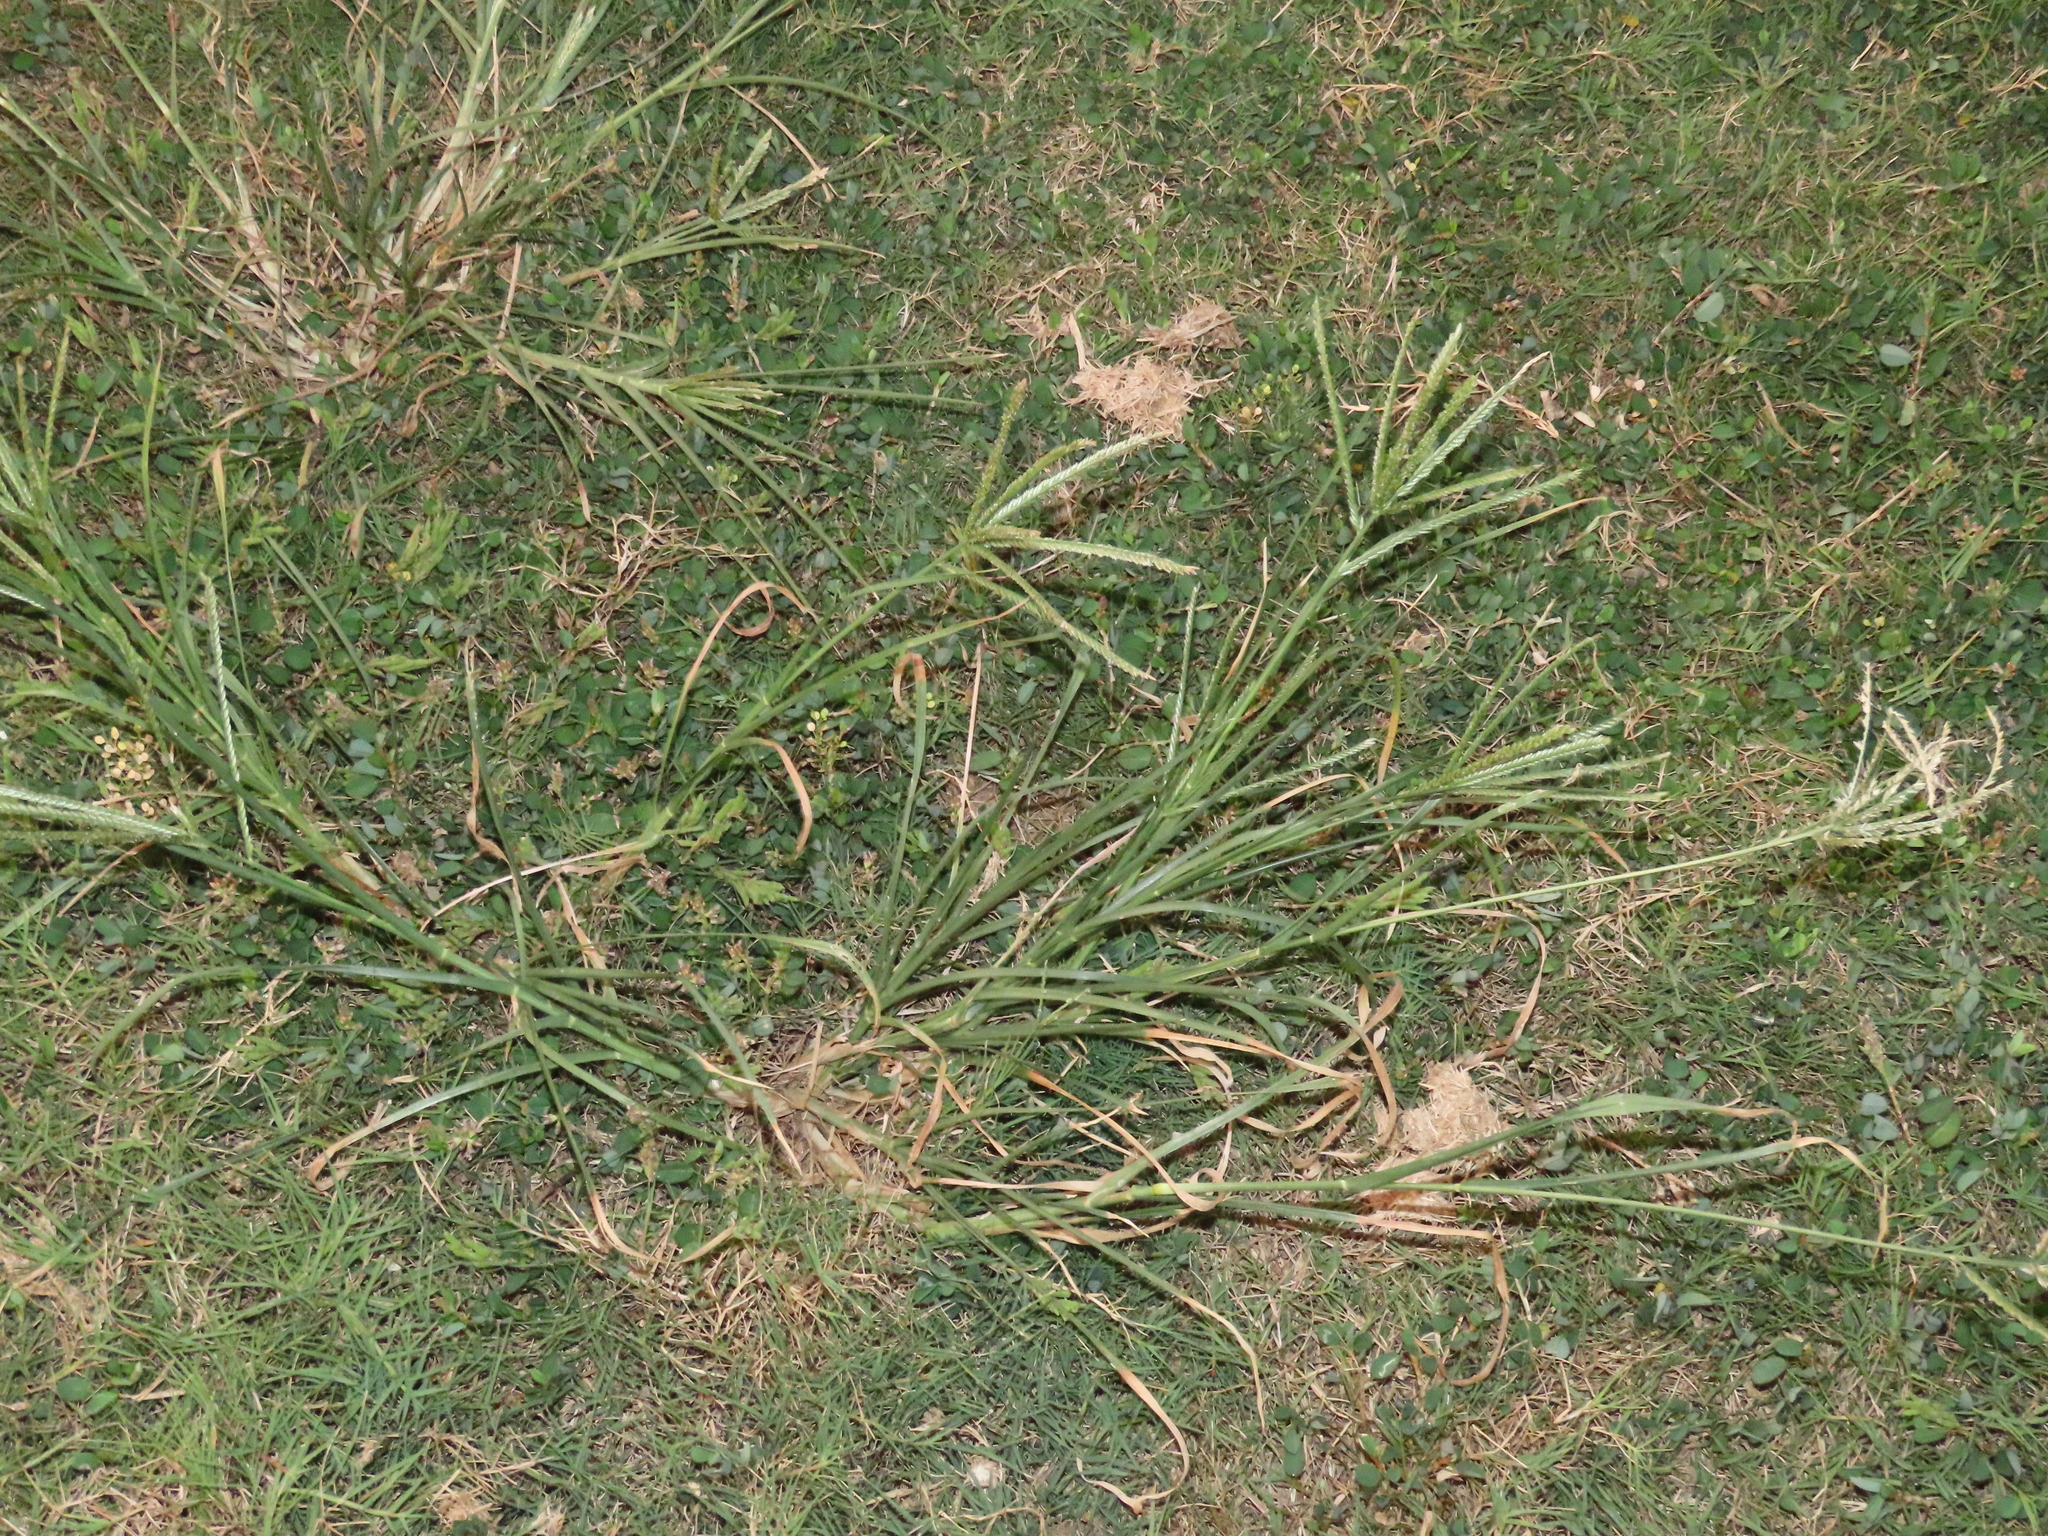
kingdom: Plantae
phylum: Tracheophyta
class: Liliopsida
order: Poales
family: Poaceae
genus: Eleusine
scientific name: Eleusine indica
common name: Yard-grass
